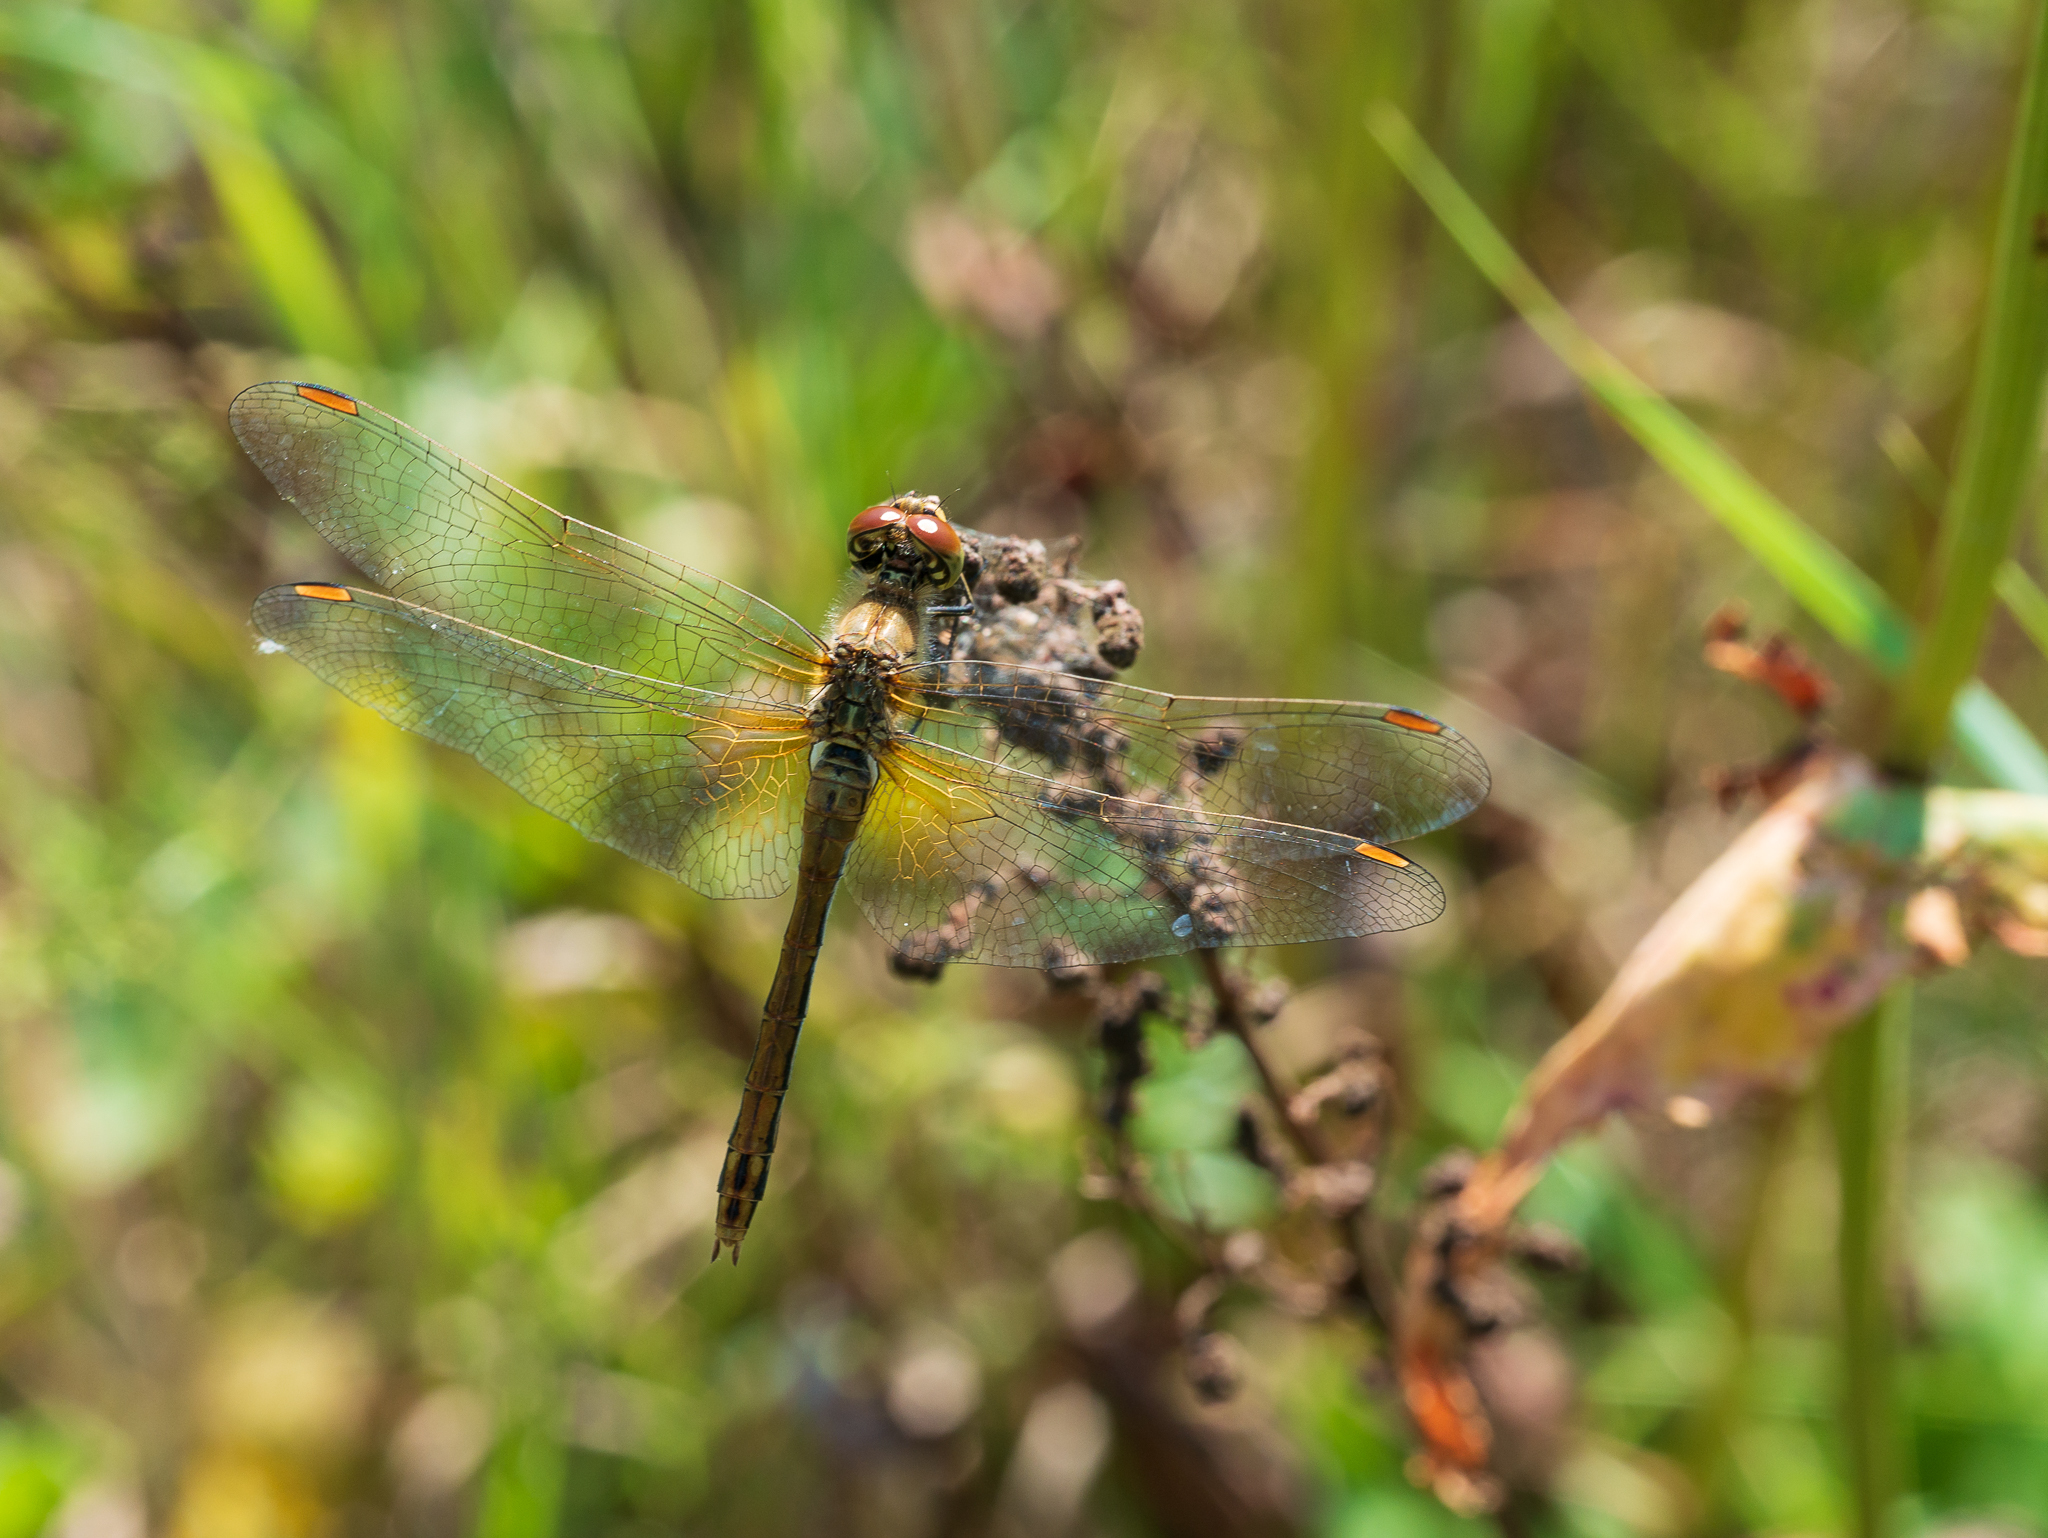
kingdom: Animalia
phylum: Arthropoda
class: Insecta
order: Odonata
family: Libellulidae
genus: Sympetrum
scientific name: Sympetrum flaveolum
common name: Yellow-winged darter
